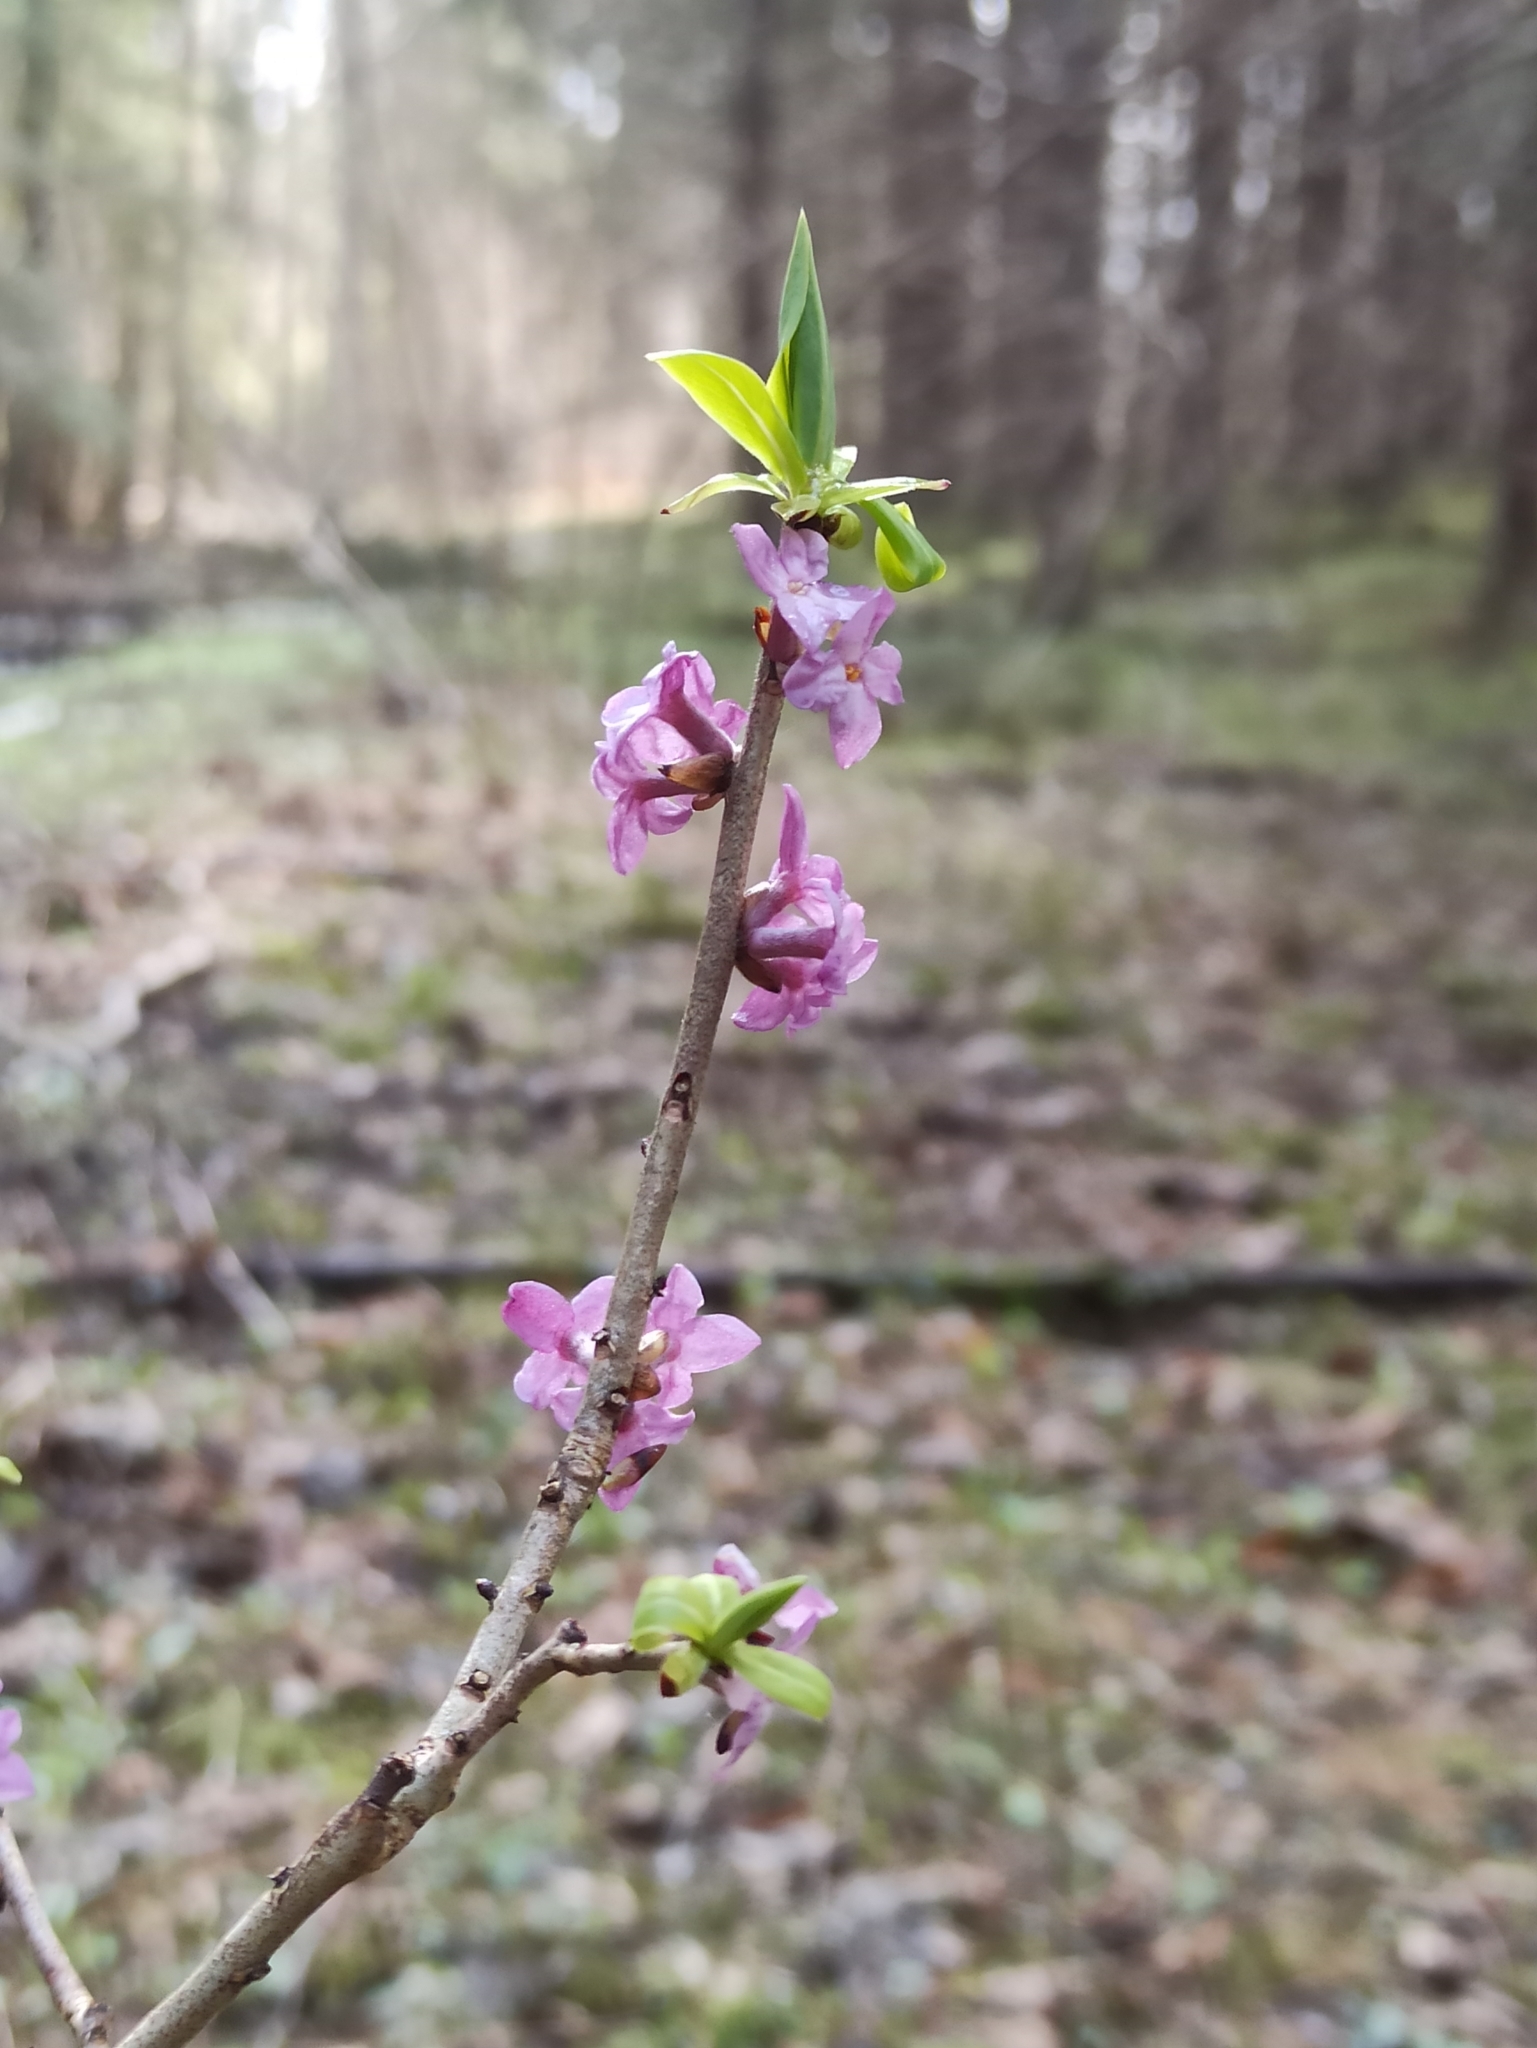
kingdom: Plantae
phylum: Tracheophyta
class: Magnoliopsida
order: Malvales
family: Thymelaeaceae
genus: Daphne
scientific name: Daphne mezereum
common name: Mezereon
